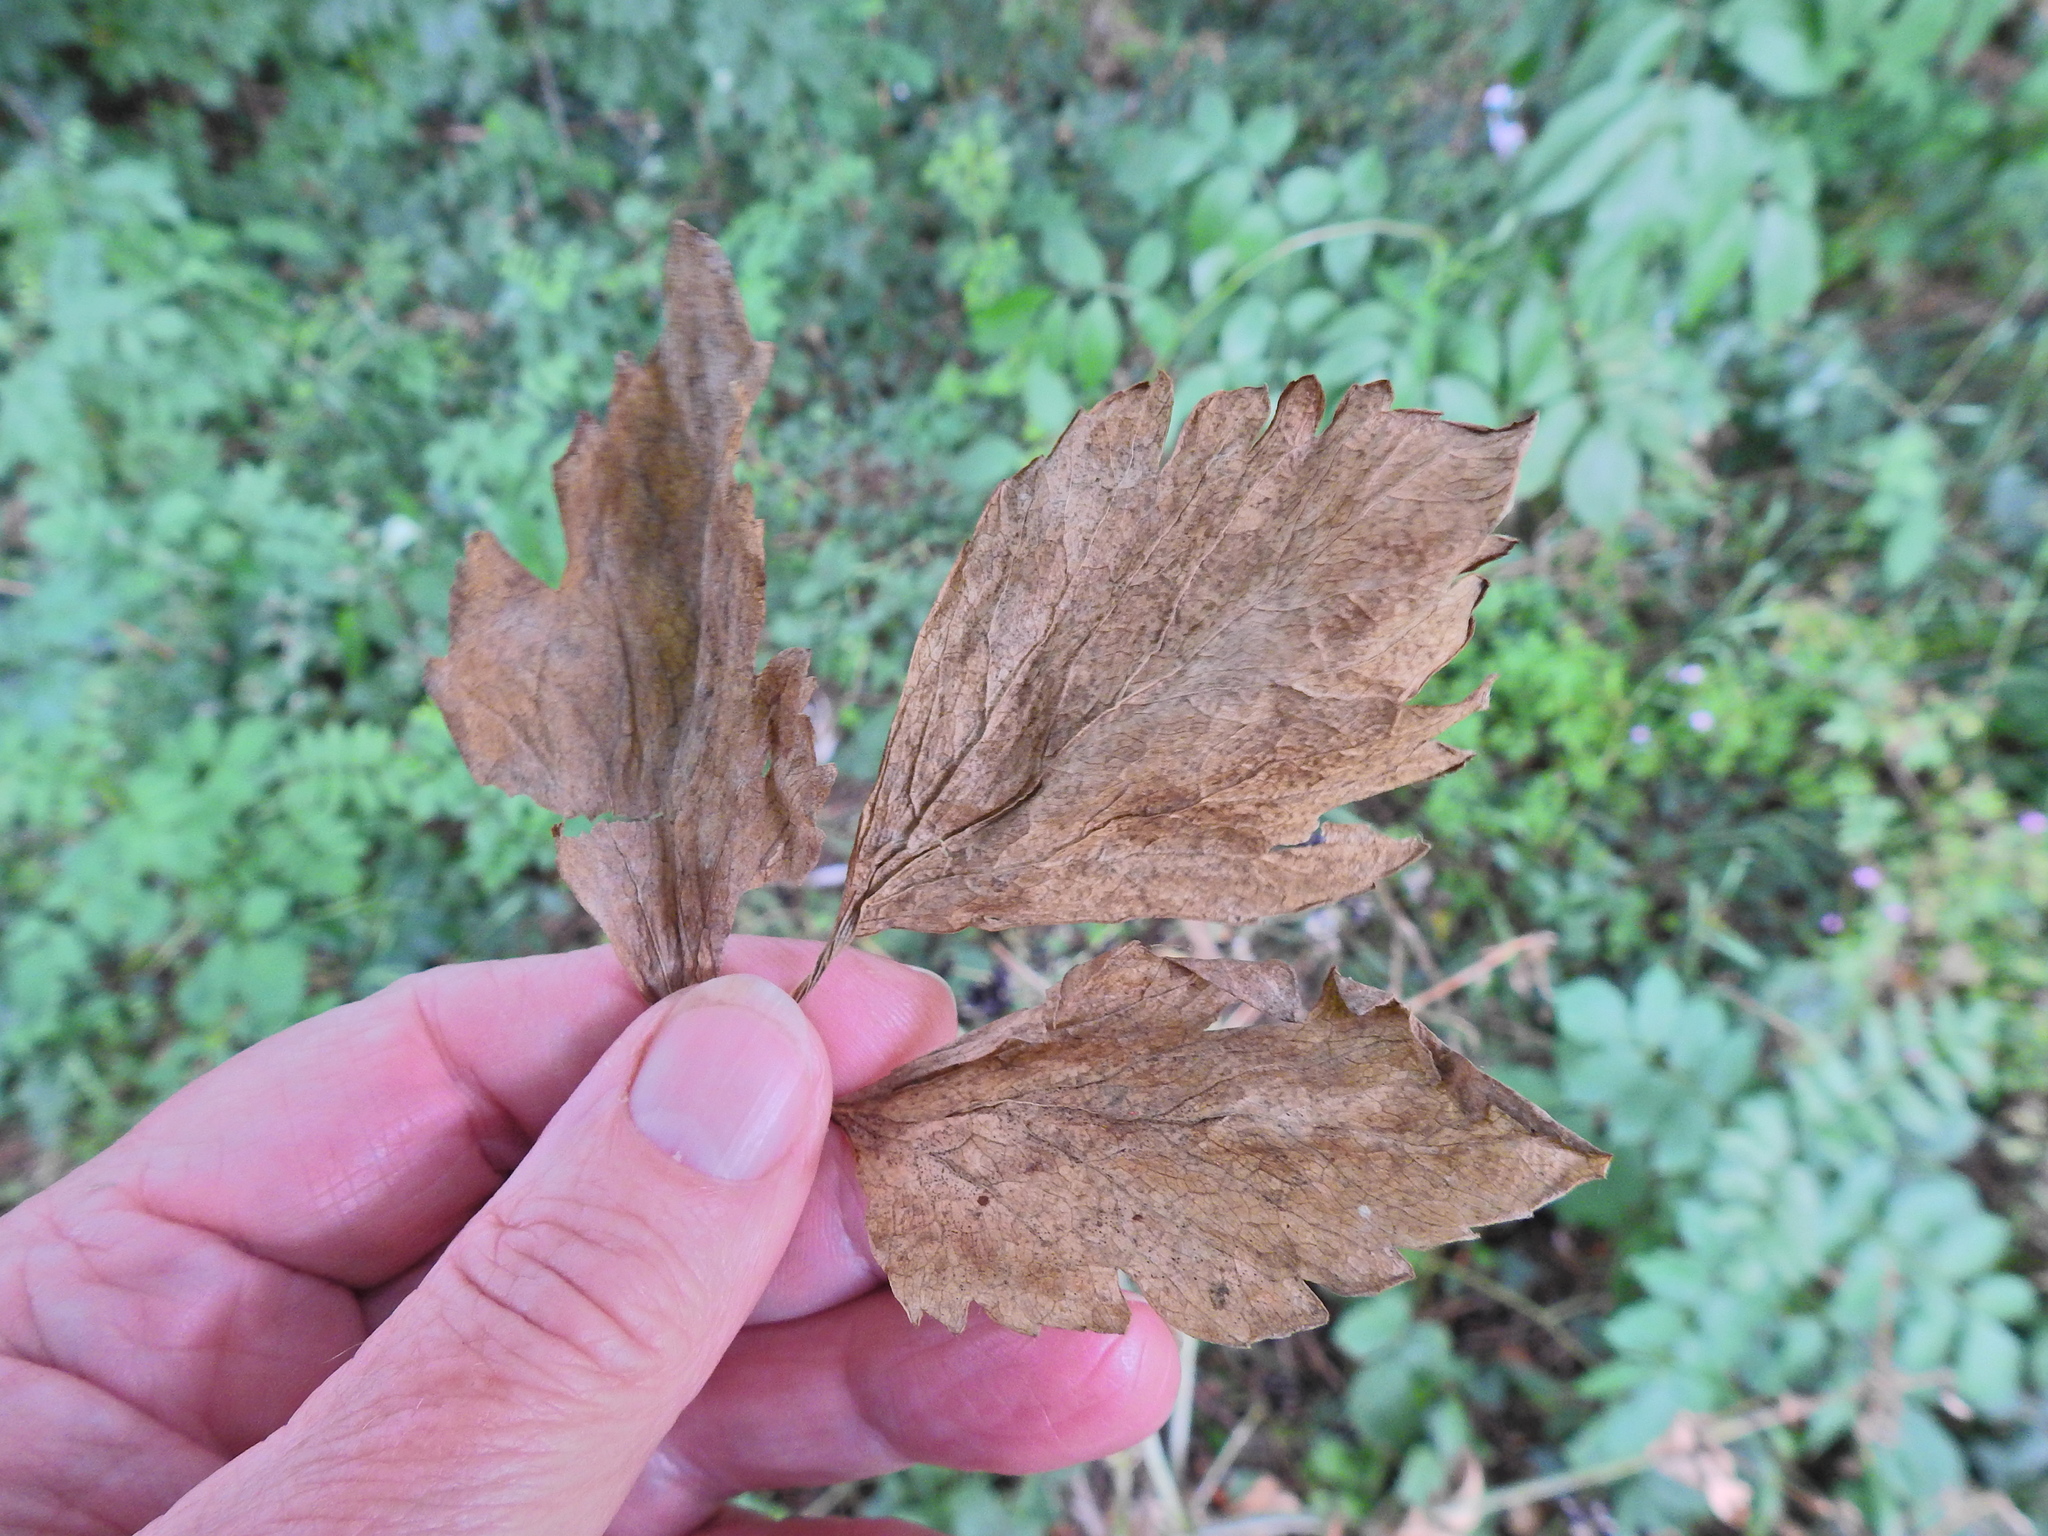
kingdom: Plantae
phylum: Tracheophyta
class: Magnoliopsida
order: Apiales
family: Apiaceae
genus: Smyrnium
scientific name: Smyrnium olusatrum
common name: Alexanders
